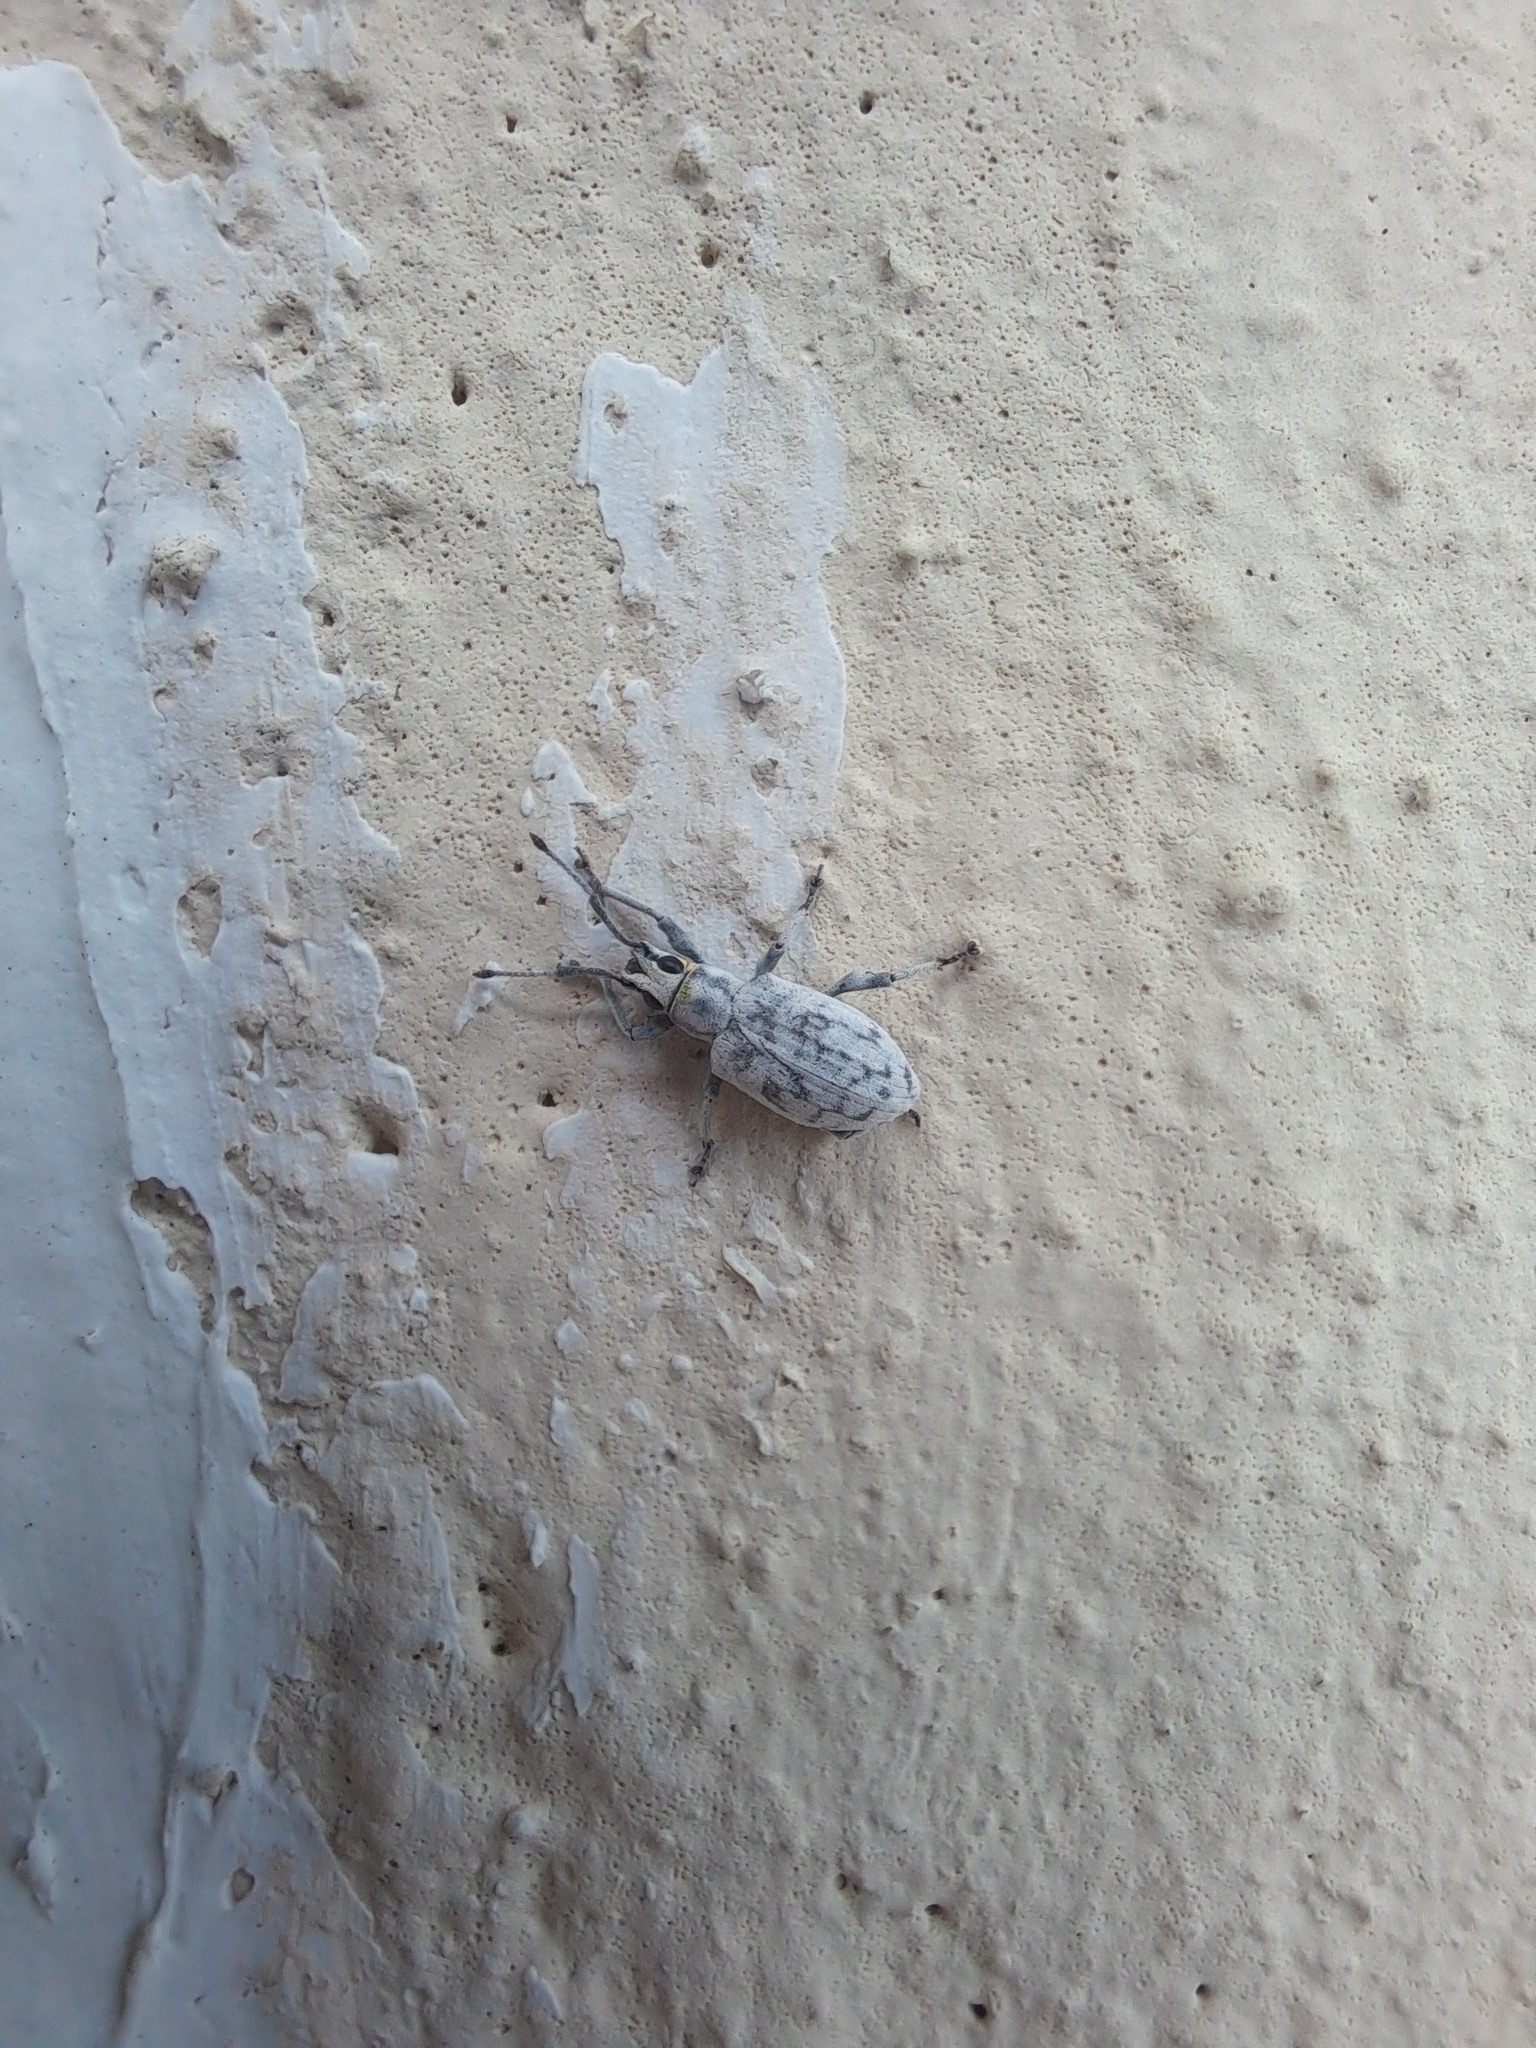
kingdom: Animalia
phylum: Arthropoda
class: Insecta
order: Coleoptera
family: Curculionidae
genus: Myllocerus
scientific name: Myllocerus undecimpustulatus
